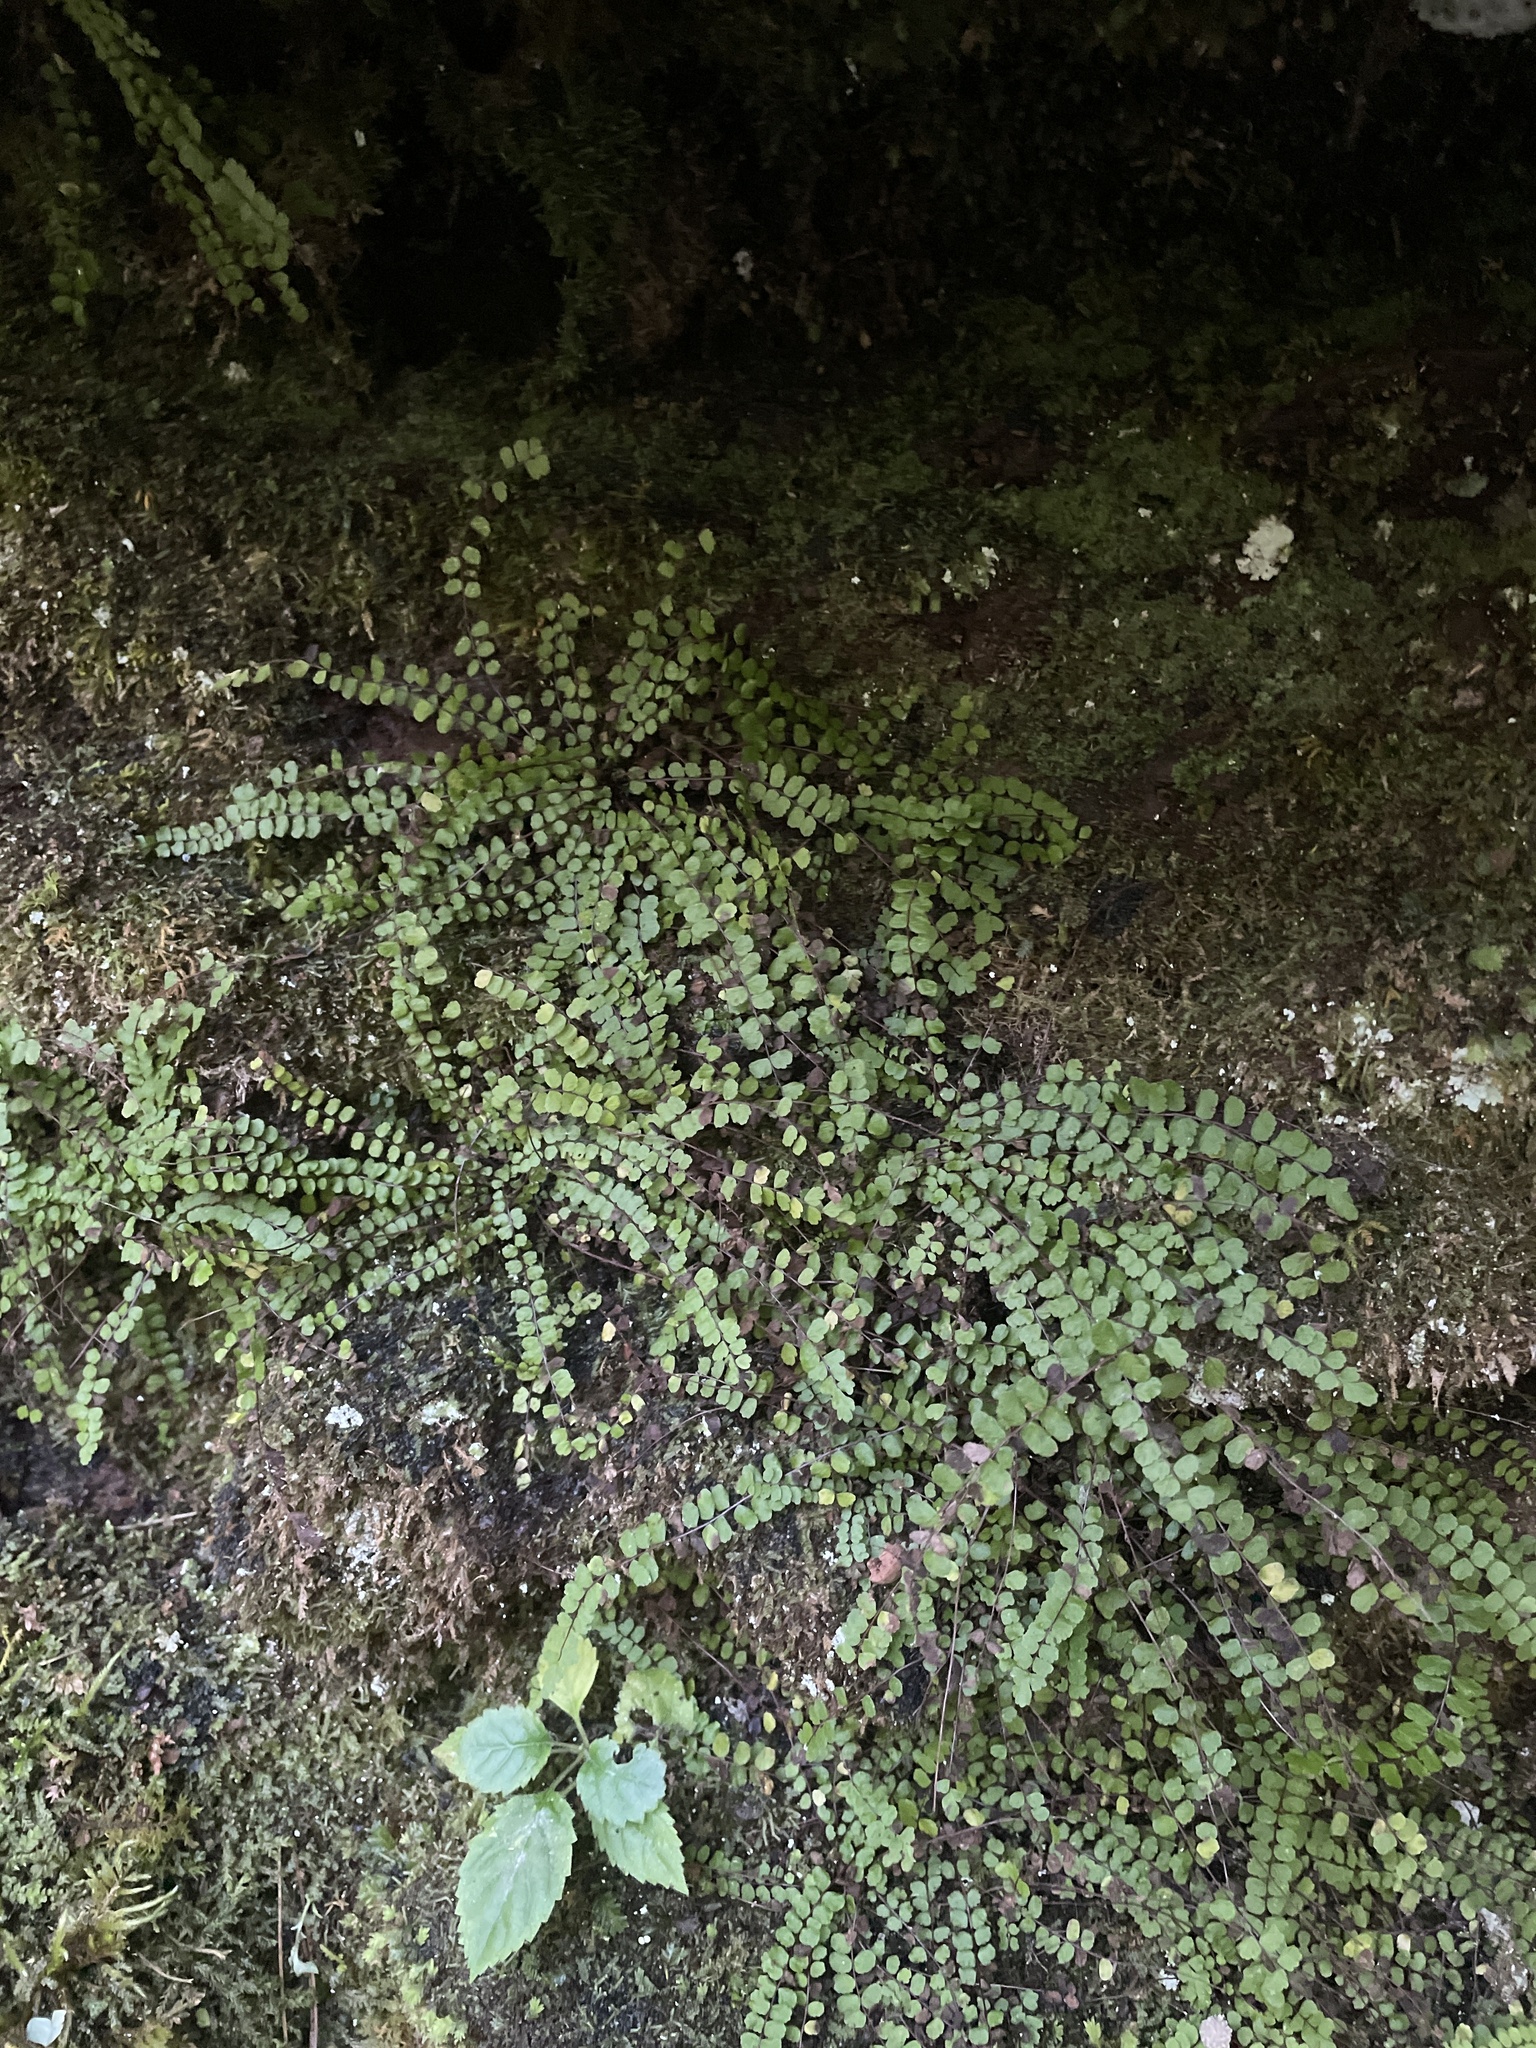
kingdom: Plantae
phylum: Tracheophyta
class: Polypodiopsida
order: Polypodiales
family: Aspleniaceae
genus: Asplenium
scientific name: Asplenium trichomanes
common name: Maidenhair spleenwort
